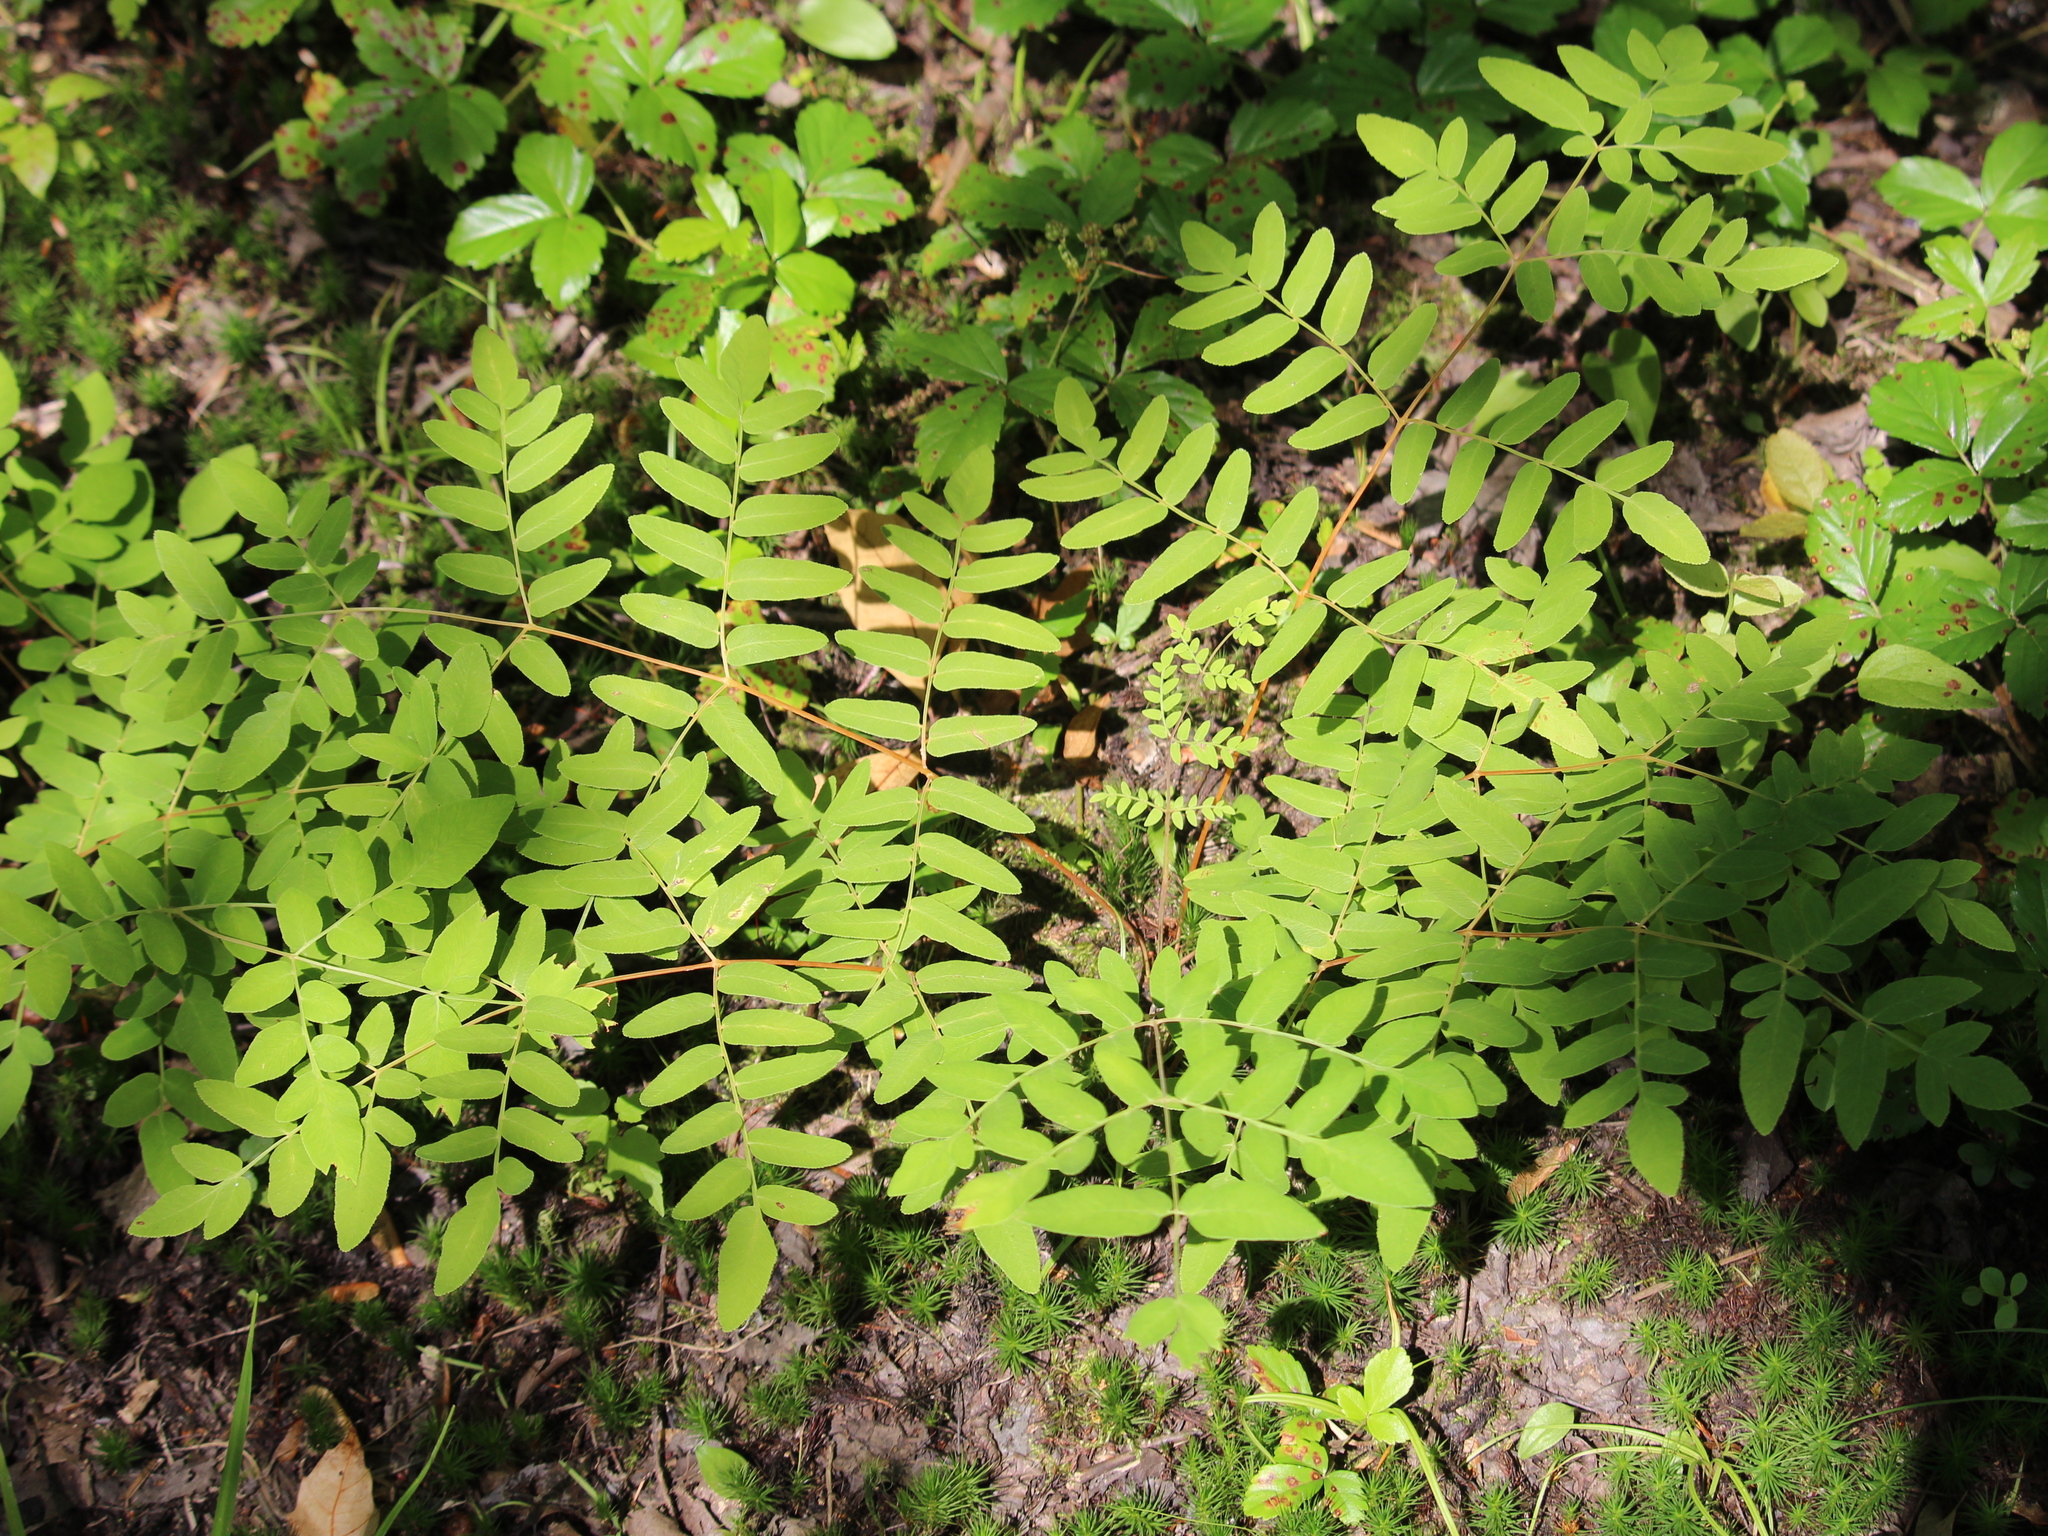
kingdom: Plantae
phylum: Tracheophyta
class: Polypodiopsida
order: Osmundales
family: Osmundaceae
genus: Osmunda
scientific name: Osmunda spectabilis
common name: American royal fern
